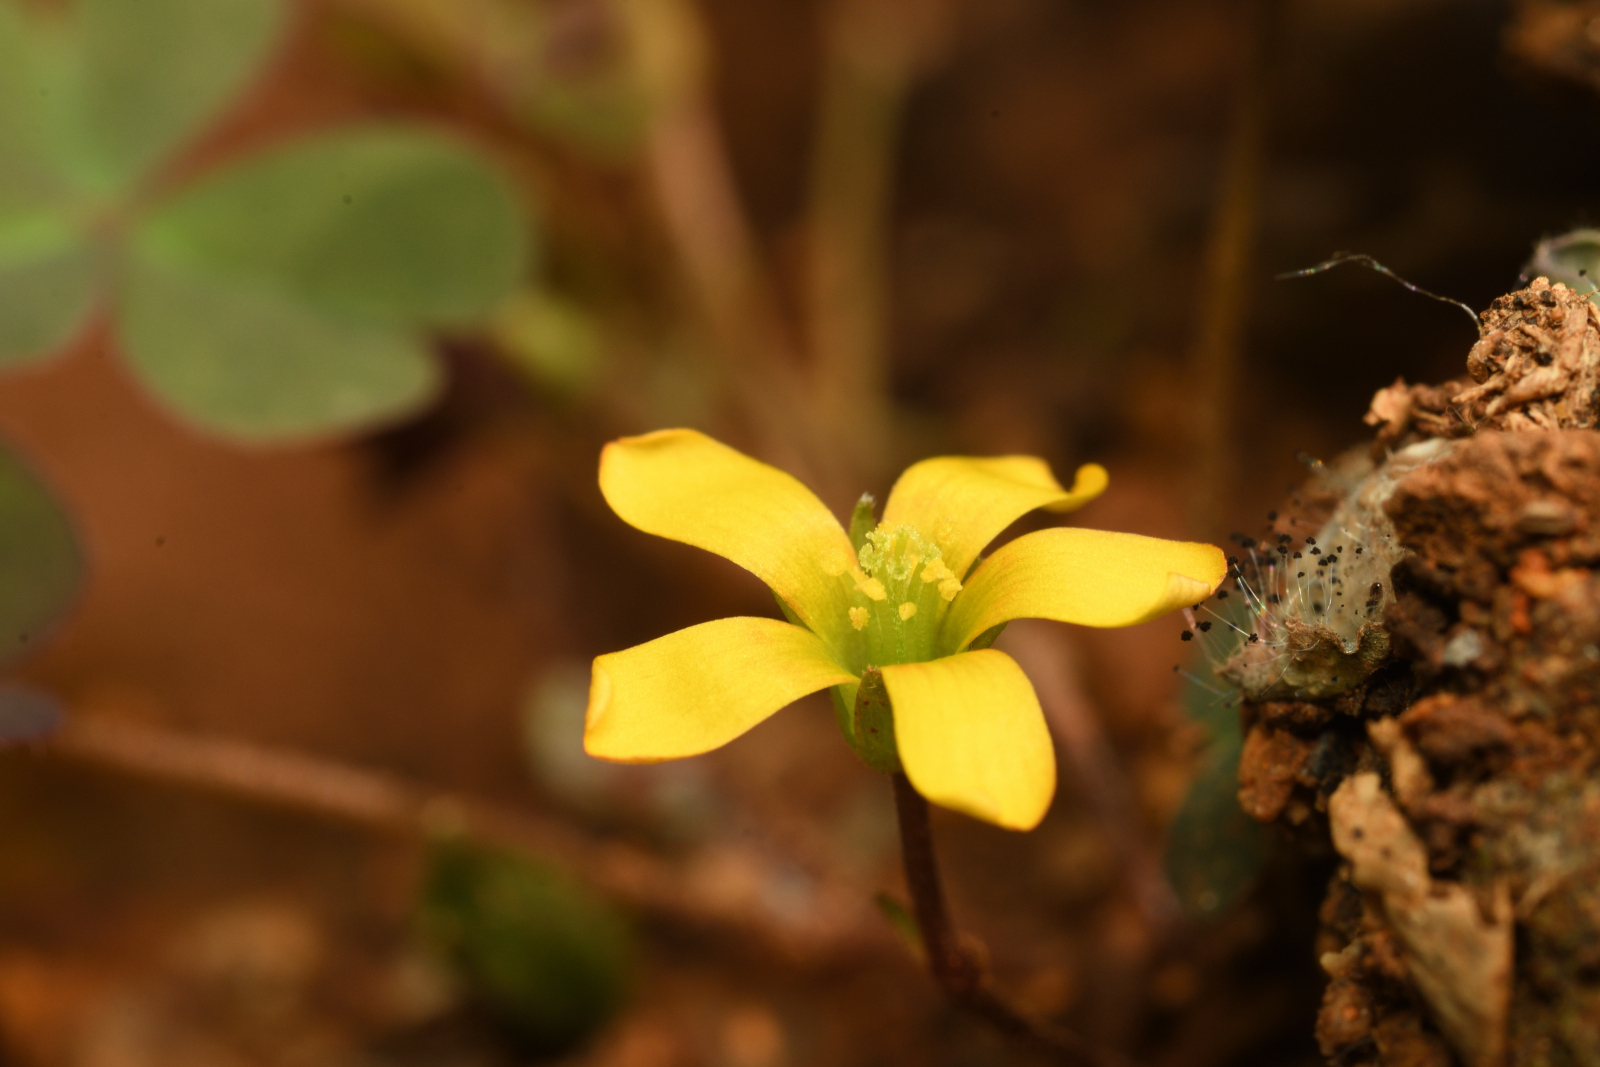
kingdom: Plantae
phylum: Tracheophyta
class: Magnoliopsida
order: Oxalidales
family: Oxalidaceae
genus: Oxalis
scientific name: Oxalis corniculata
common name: Procumbent yellow-sorrel
